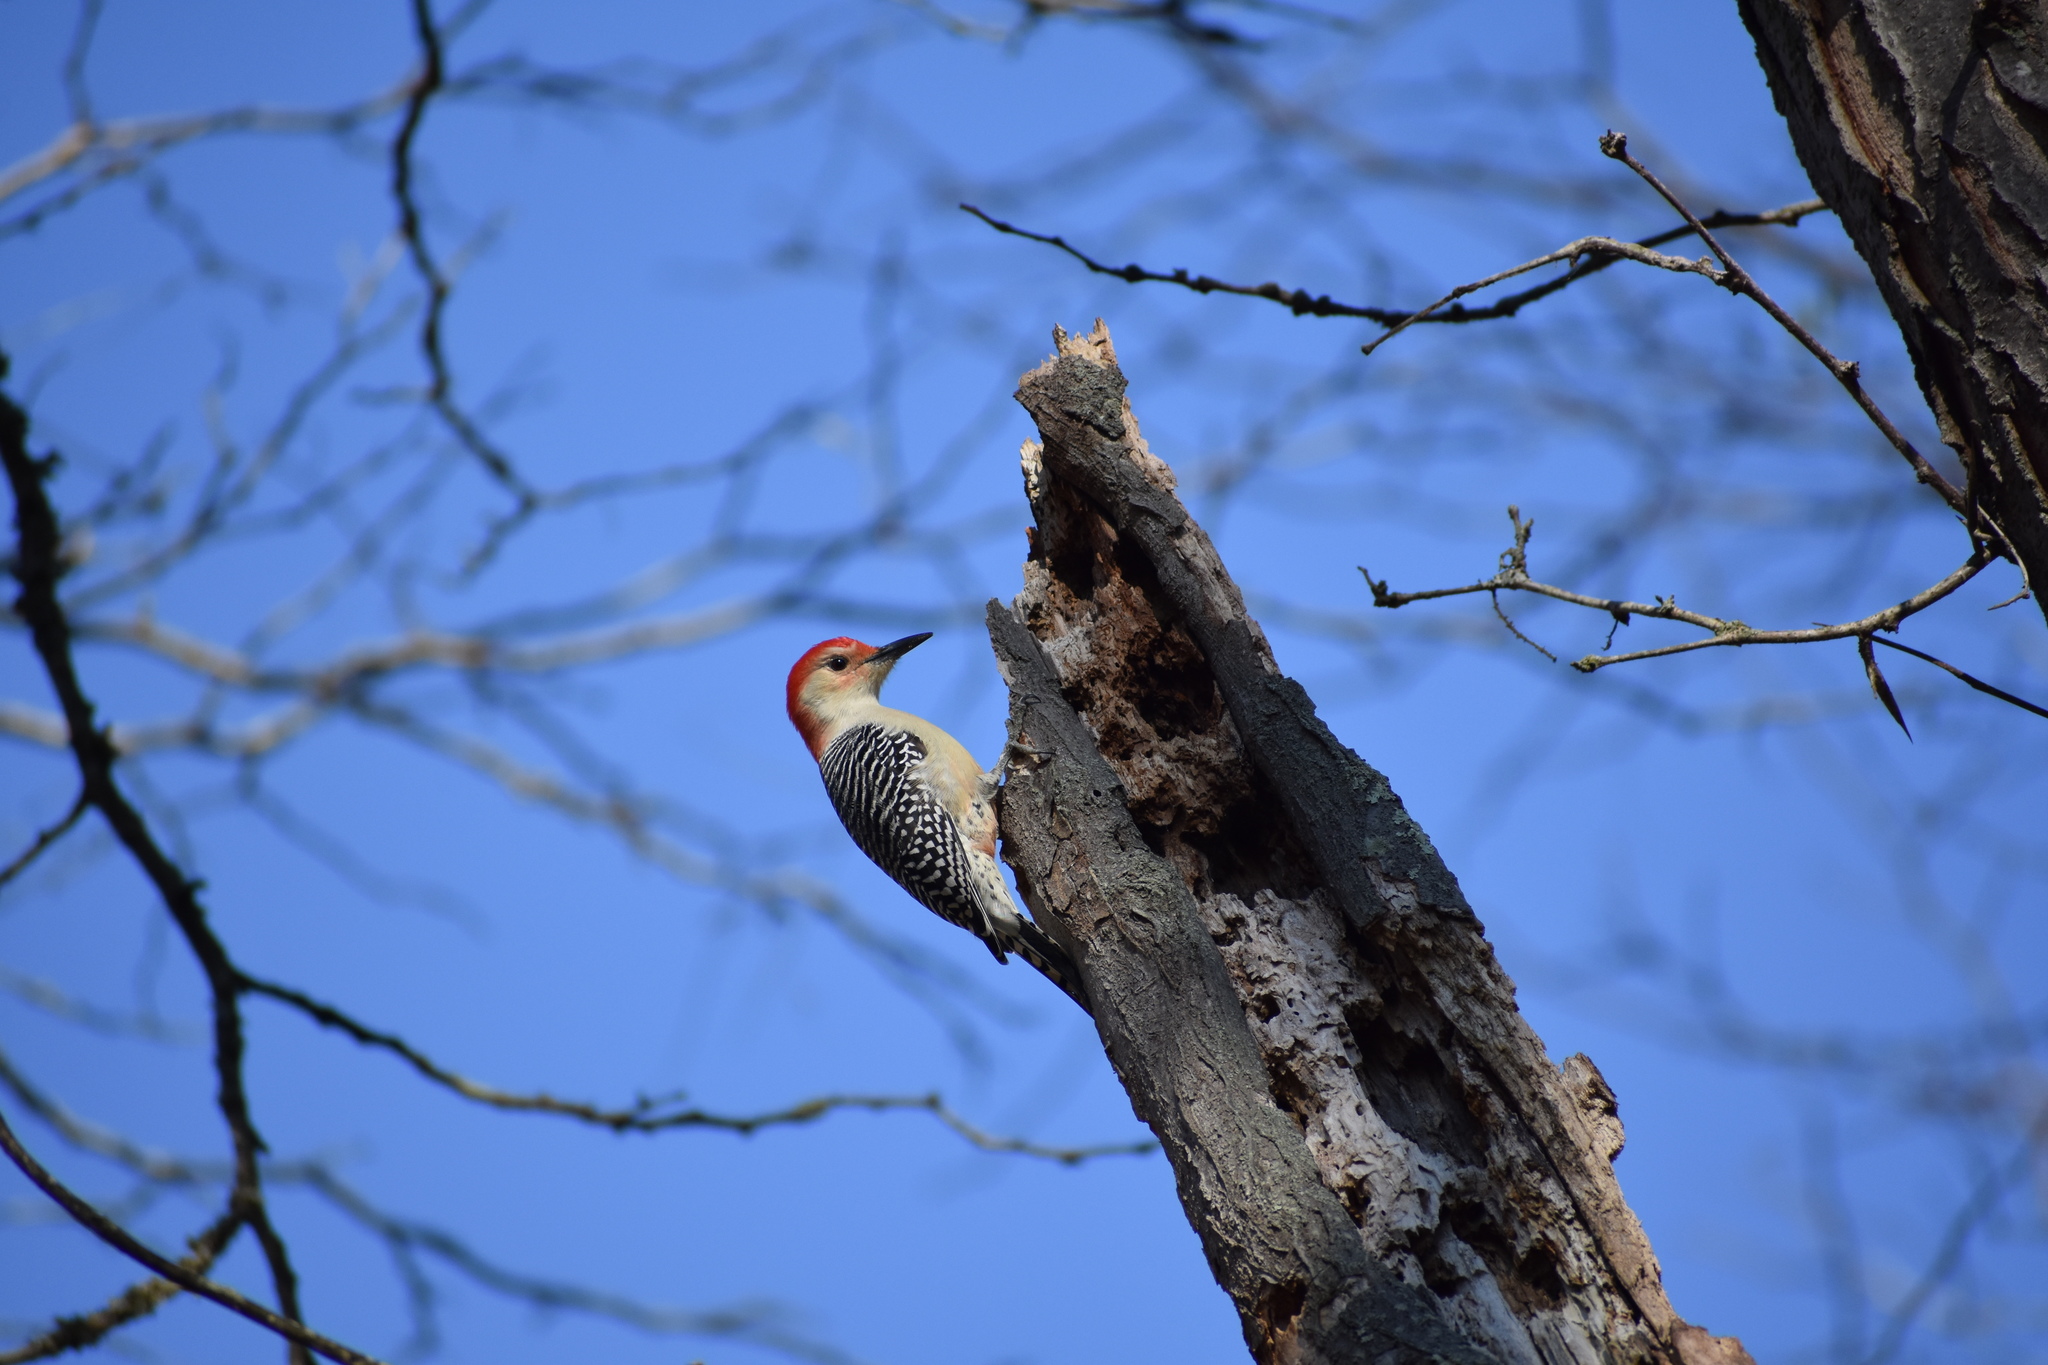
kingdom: Animalia
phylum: Chordata
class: Aves
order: Piciformes
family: Picidae
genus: Melanerpes
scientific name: Melanerpes carolinus
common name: Red-bellied woodpecker
